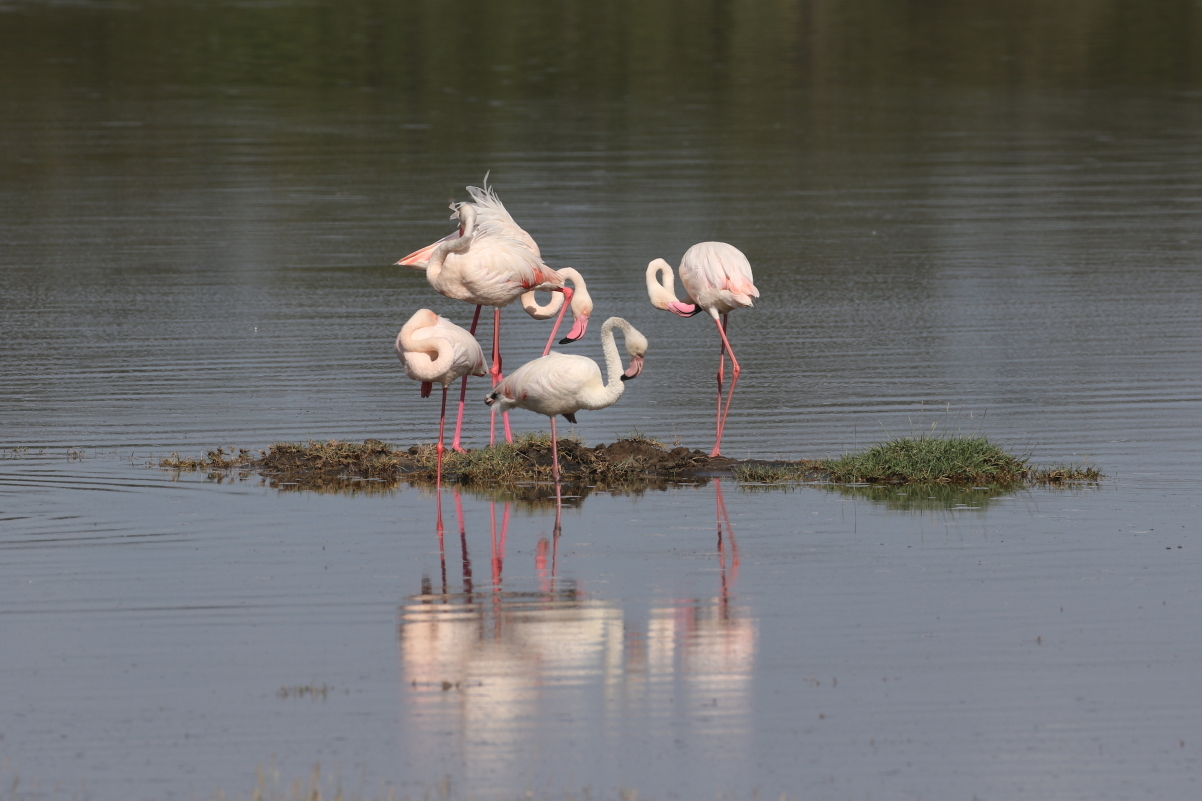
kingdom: Animalia
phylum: Chordata
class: Aves
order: Phoenicopteriformes
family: Phoenicopteridae
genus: Phoenicopterus
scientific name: Phoenicopterus roseus
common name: Greater flamingo
